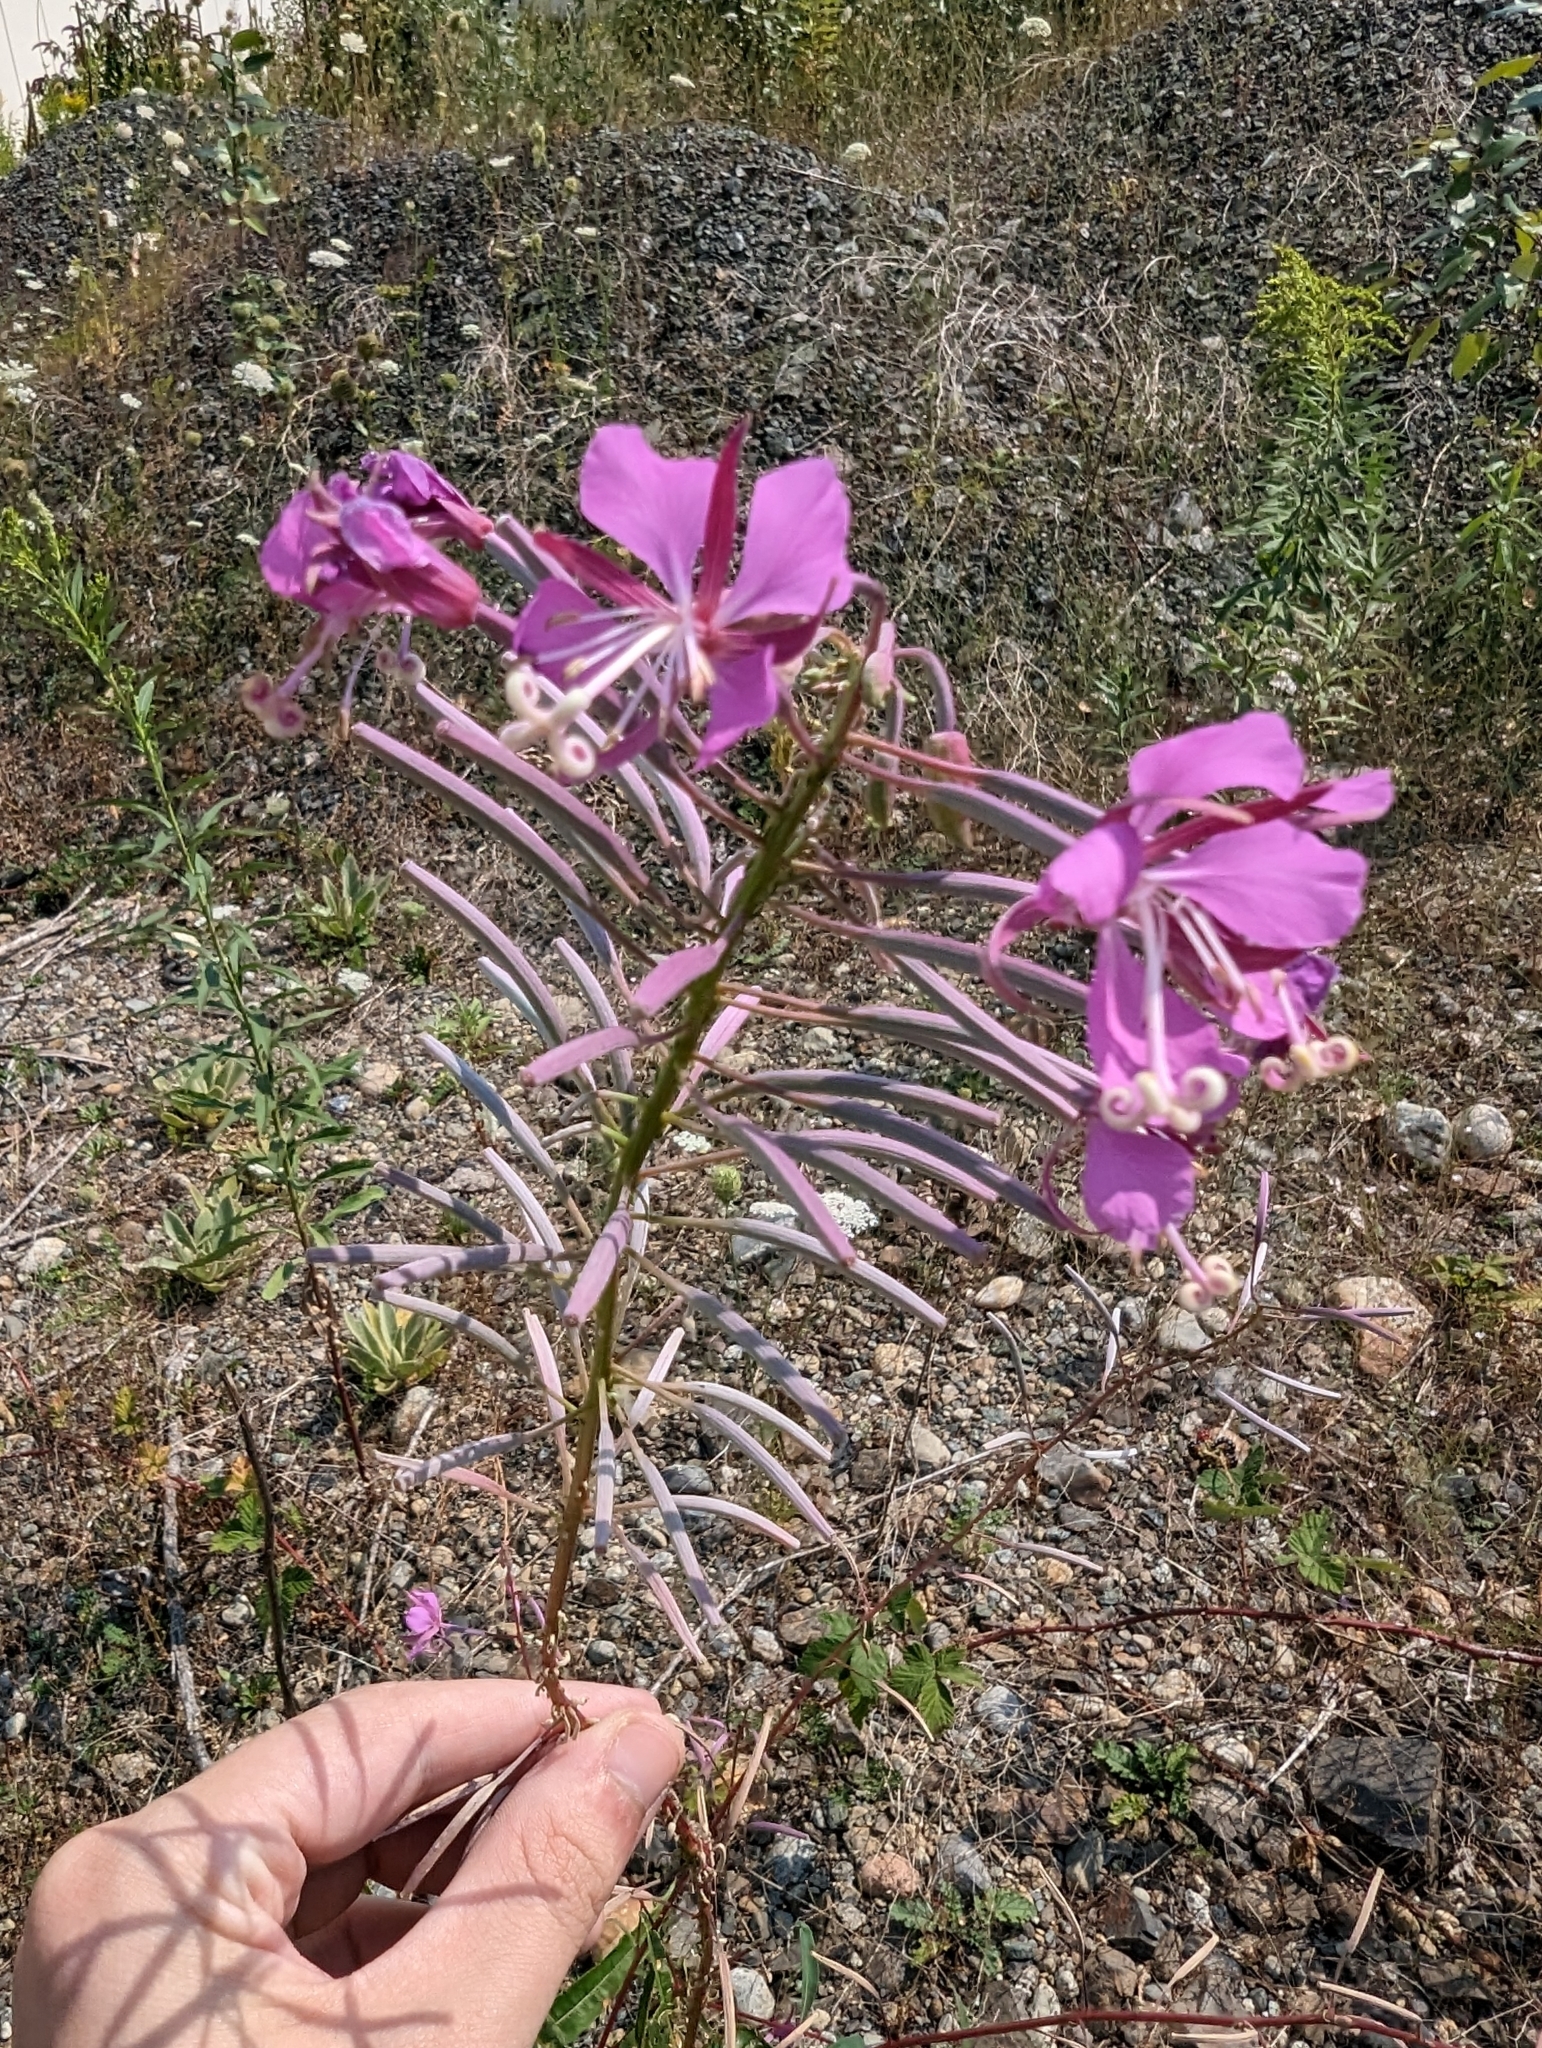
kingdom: Plantae
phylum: Tracheophyta
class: Magnoliopsida
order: Myrtales
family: Onagraceae
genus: Chamaenerion
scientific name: Chamaenerion angustifolium
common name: Fireweed
